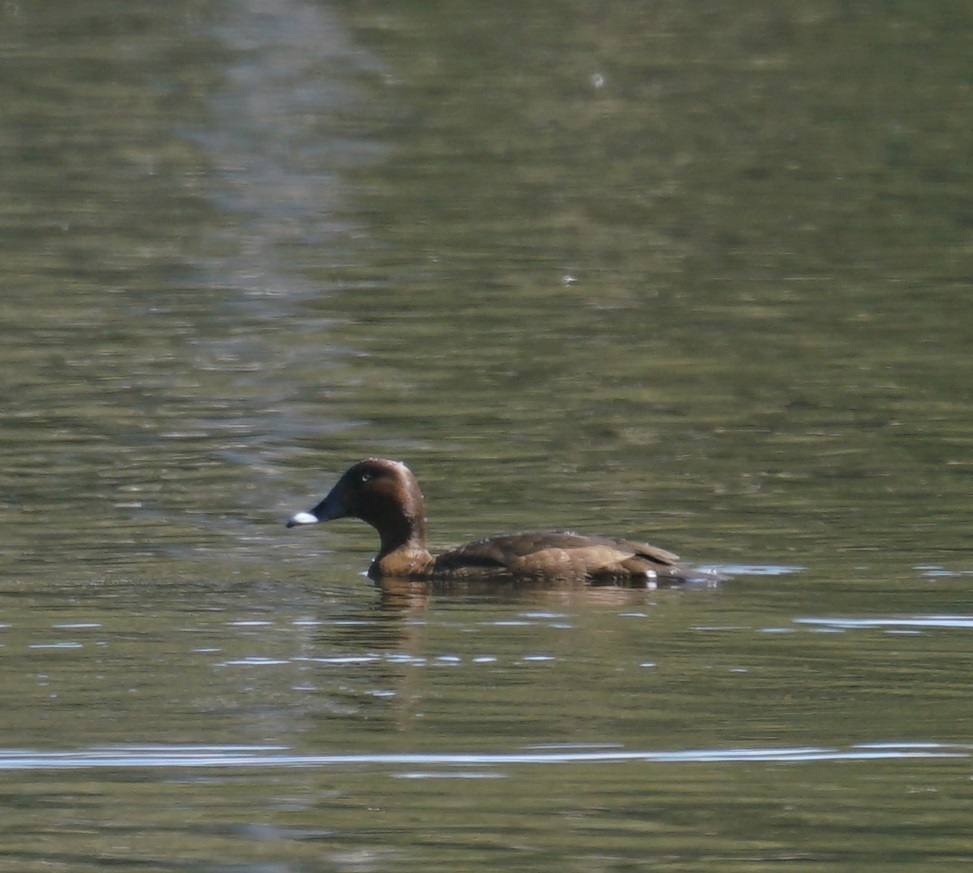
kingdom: Animalia
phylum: Chordata
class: Aves
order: Anseriformes
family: Anatidae
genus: Aythya
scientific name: Aythya australis
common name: Hardhead
